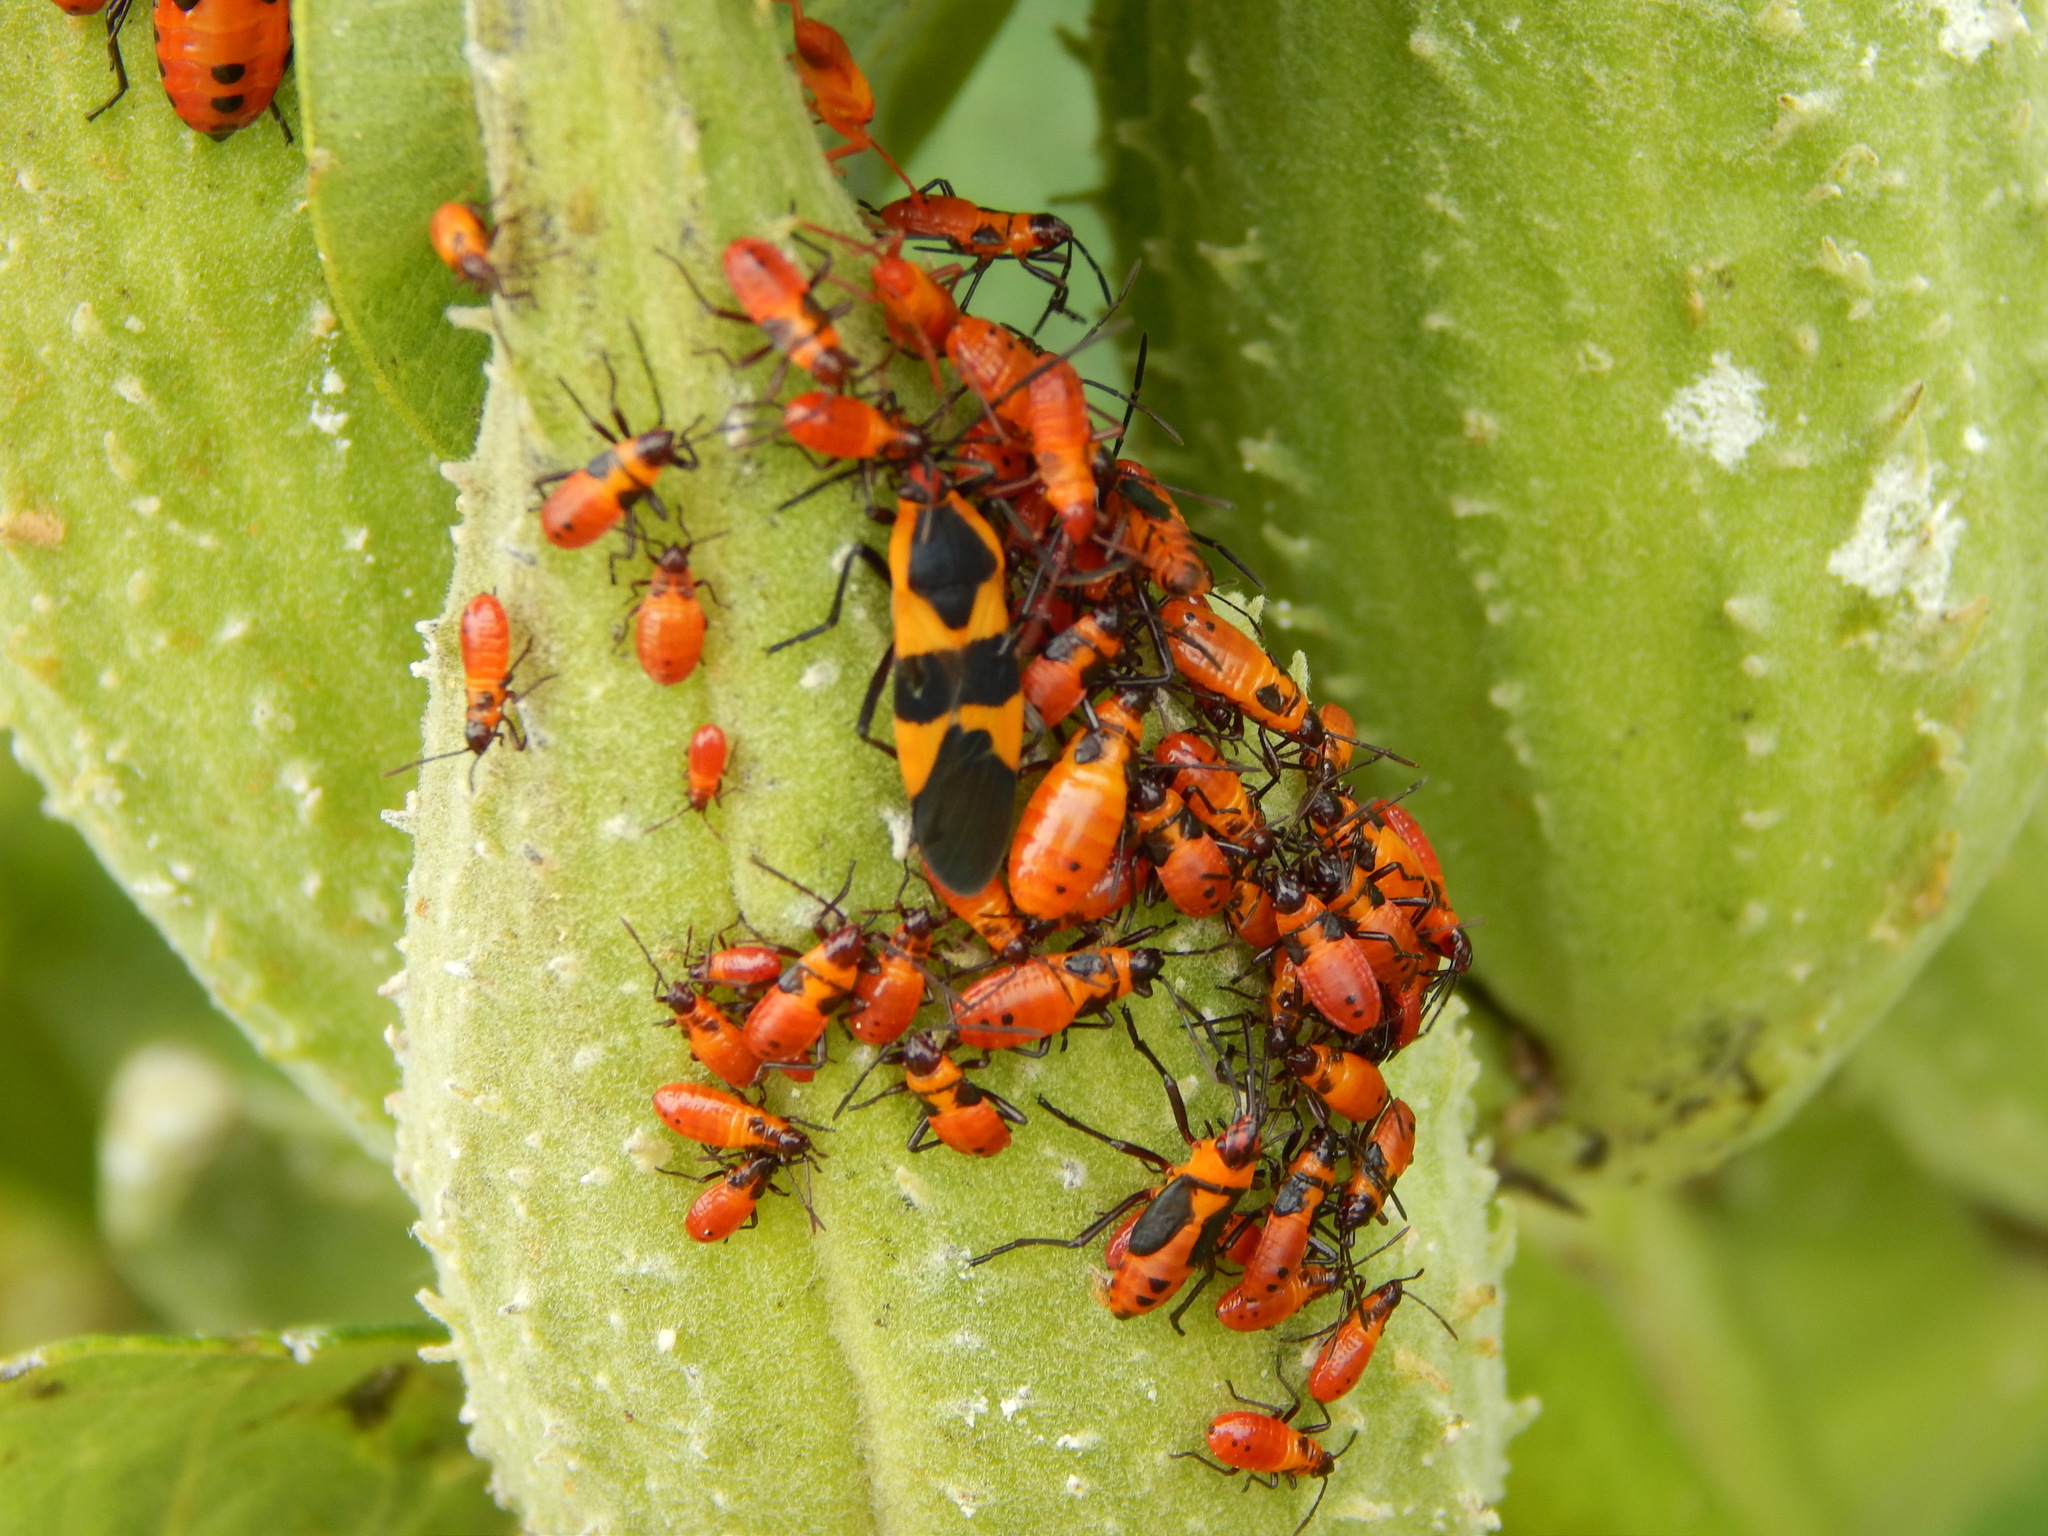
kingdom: Animalia
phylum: Arthropoda
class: Insecta
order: Hemiptera
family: Lygaeidae
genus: Oncopeltus
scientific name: Oncopeltus fasciatus
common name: Large milkweed bug
